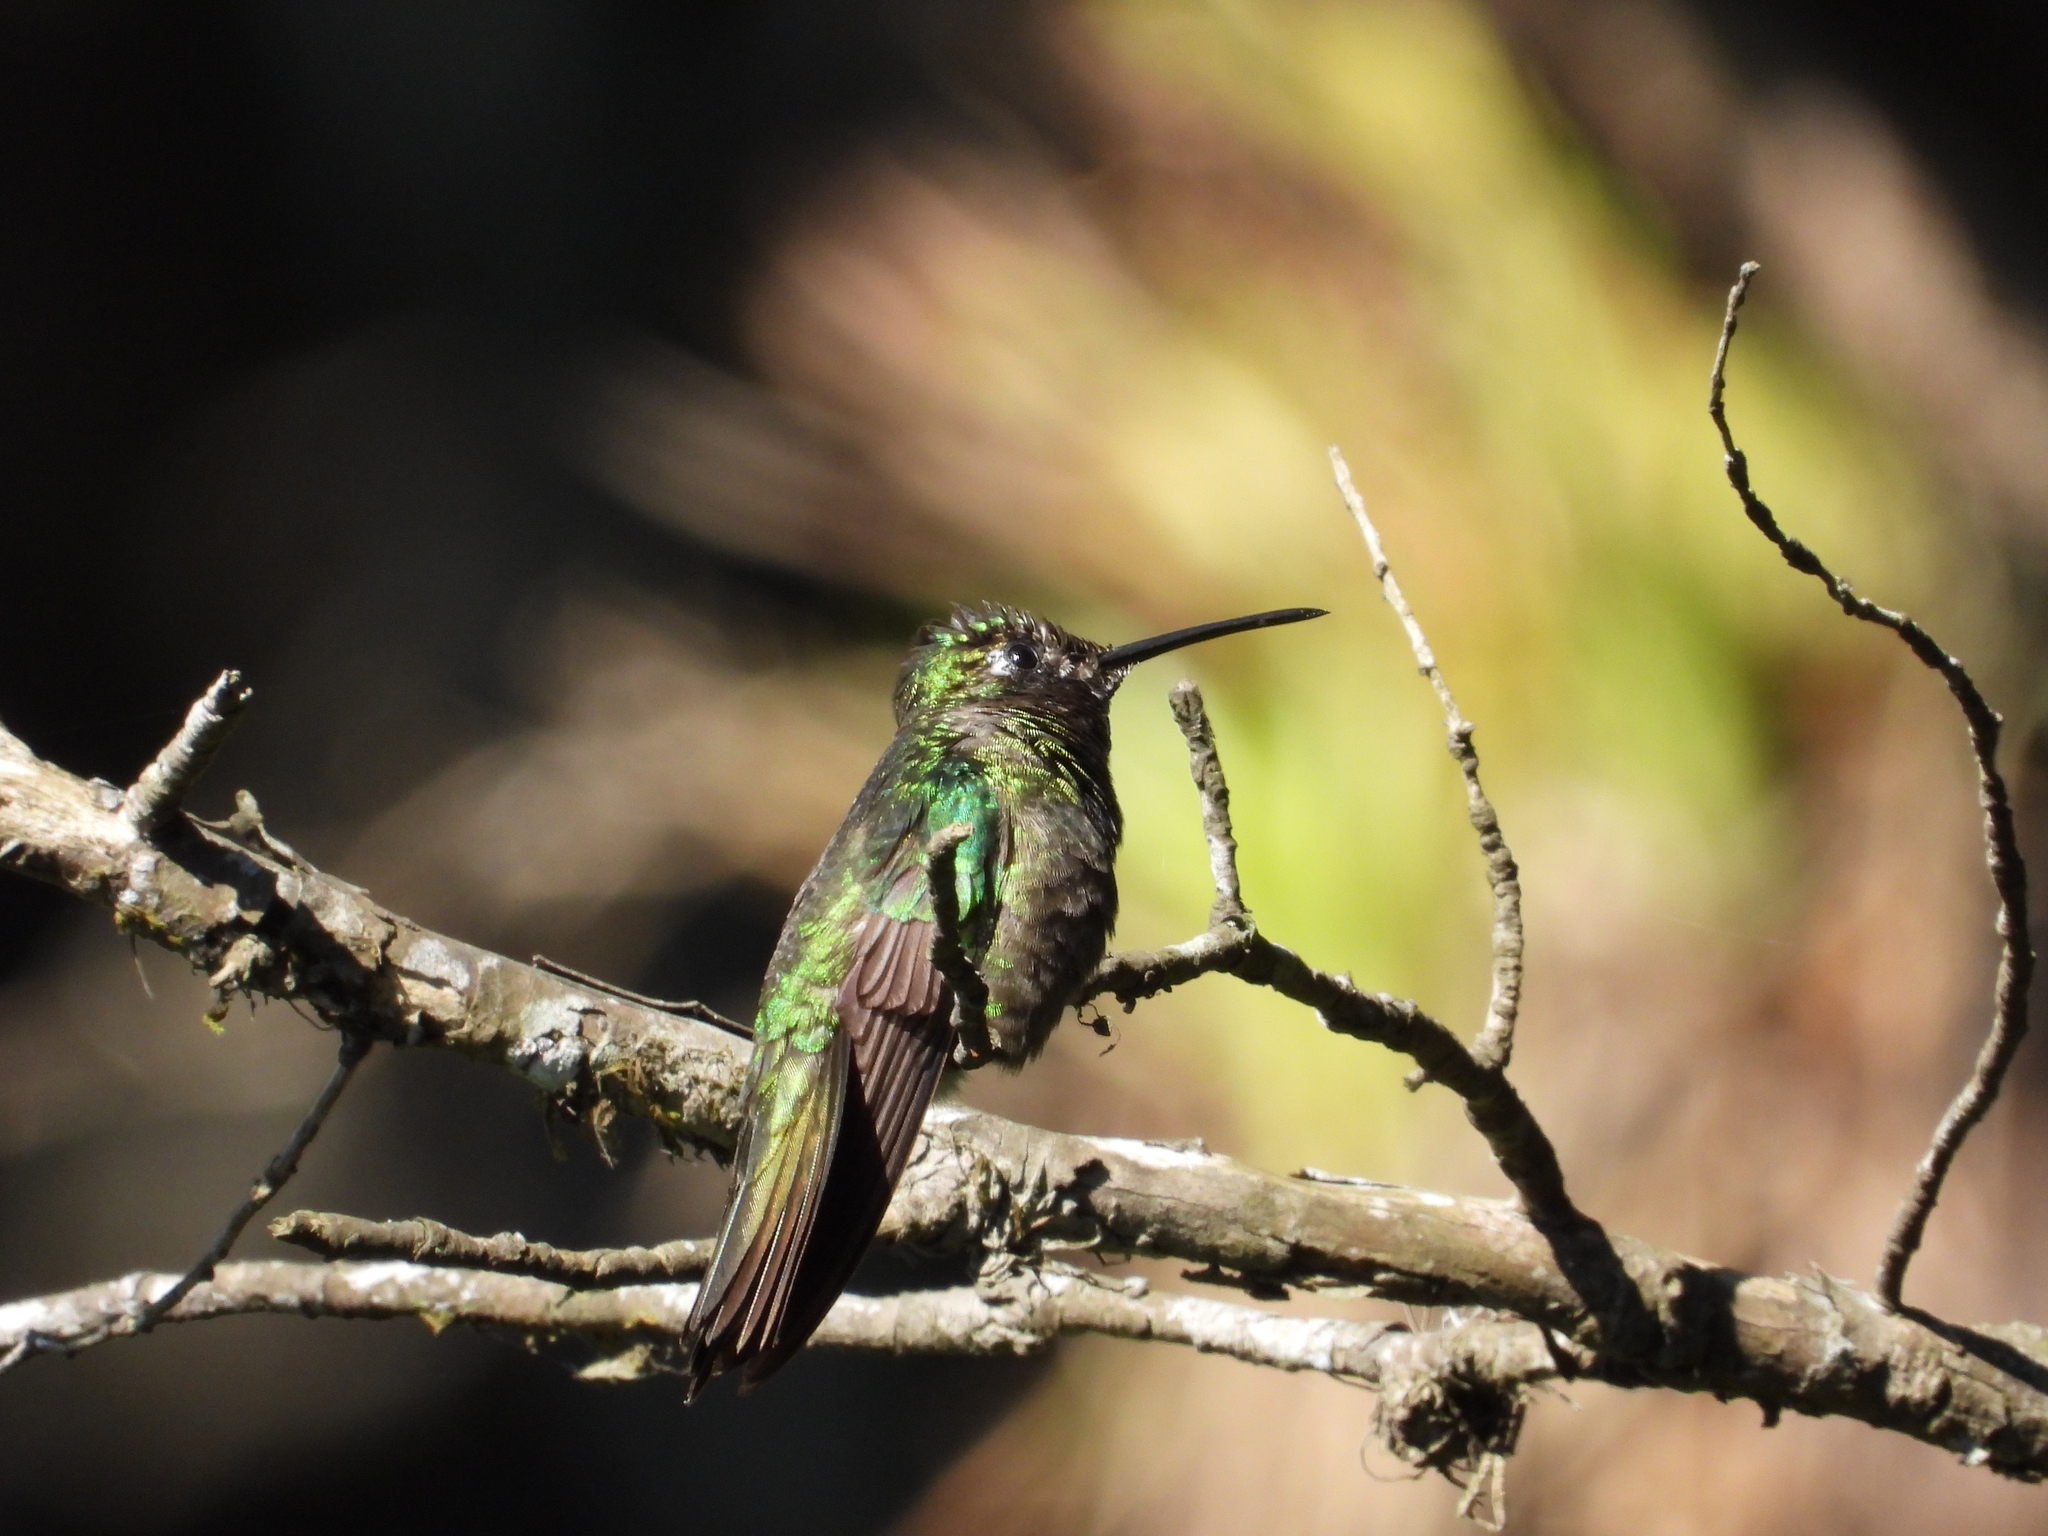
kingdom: Animalia
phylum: Chordata
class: Aves
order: Apodiformes
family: Trochilidae
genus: Eugenes
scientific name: Eugenes fulgens
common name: Magnificent hummingbird
